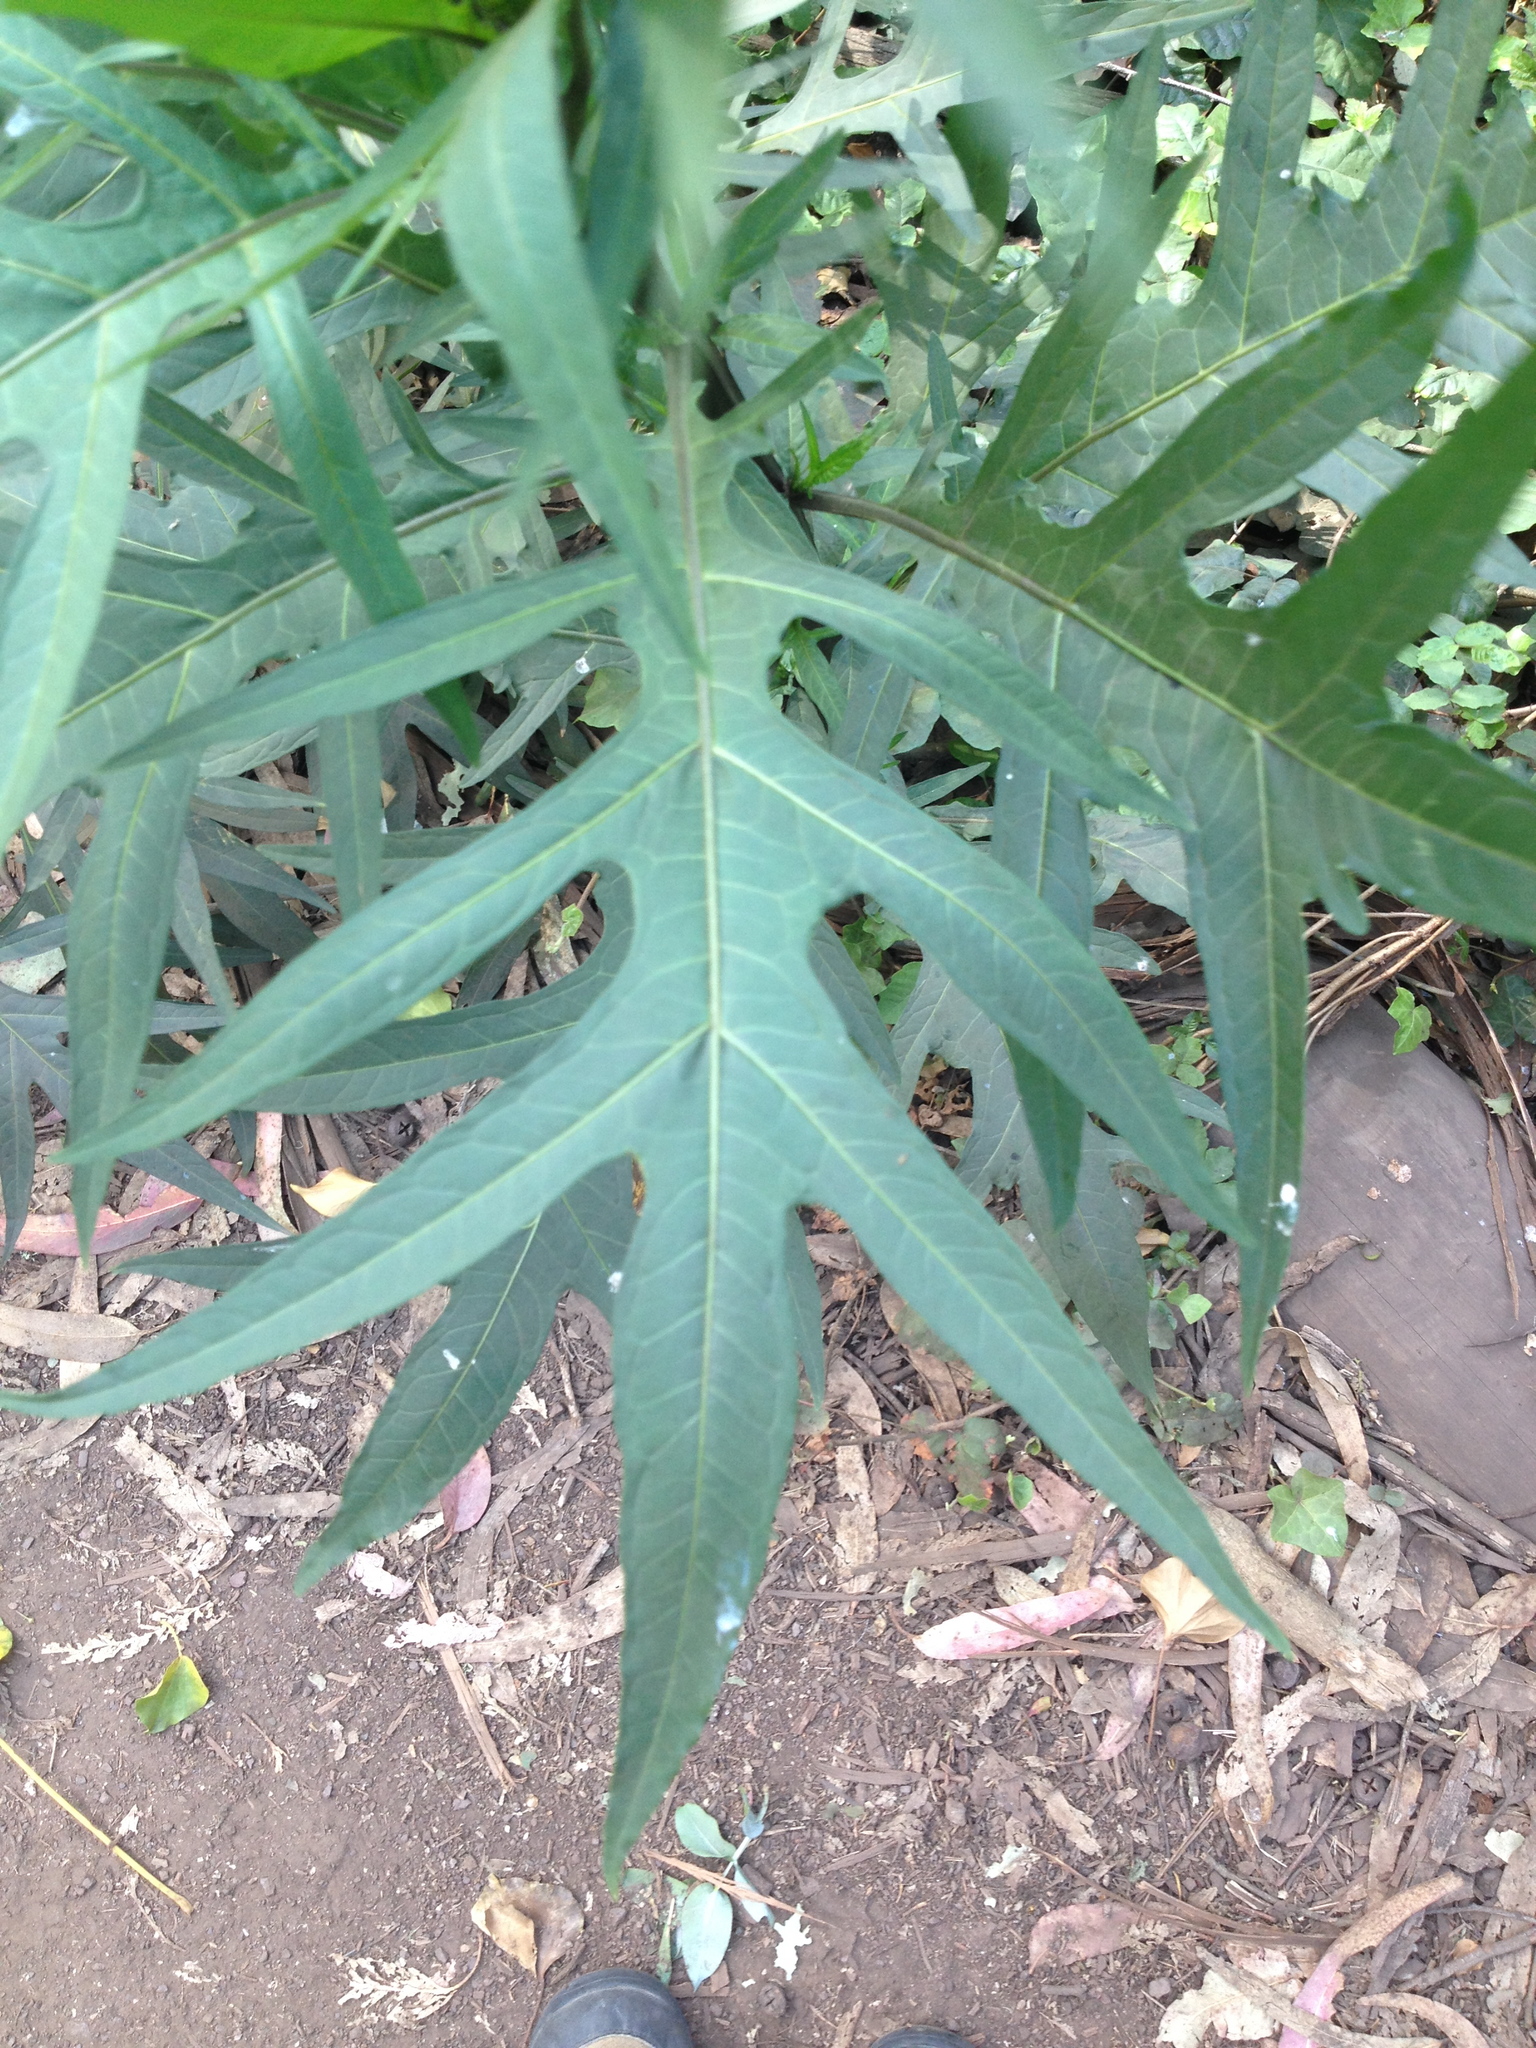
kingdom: Plantae
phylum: Tracheophyta
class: Magnoliopsida
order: Solanales
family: Solanaceae
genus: Solanum
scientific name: Solanum
